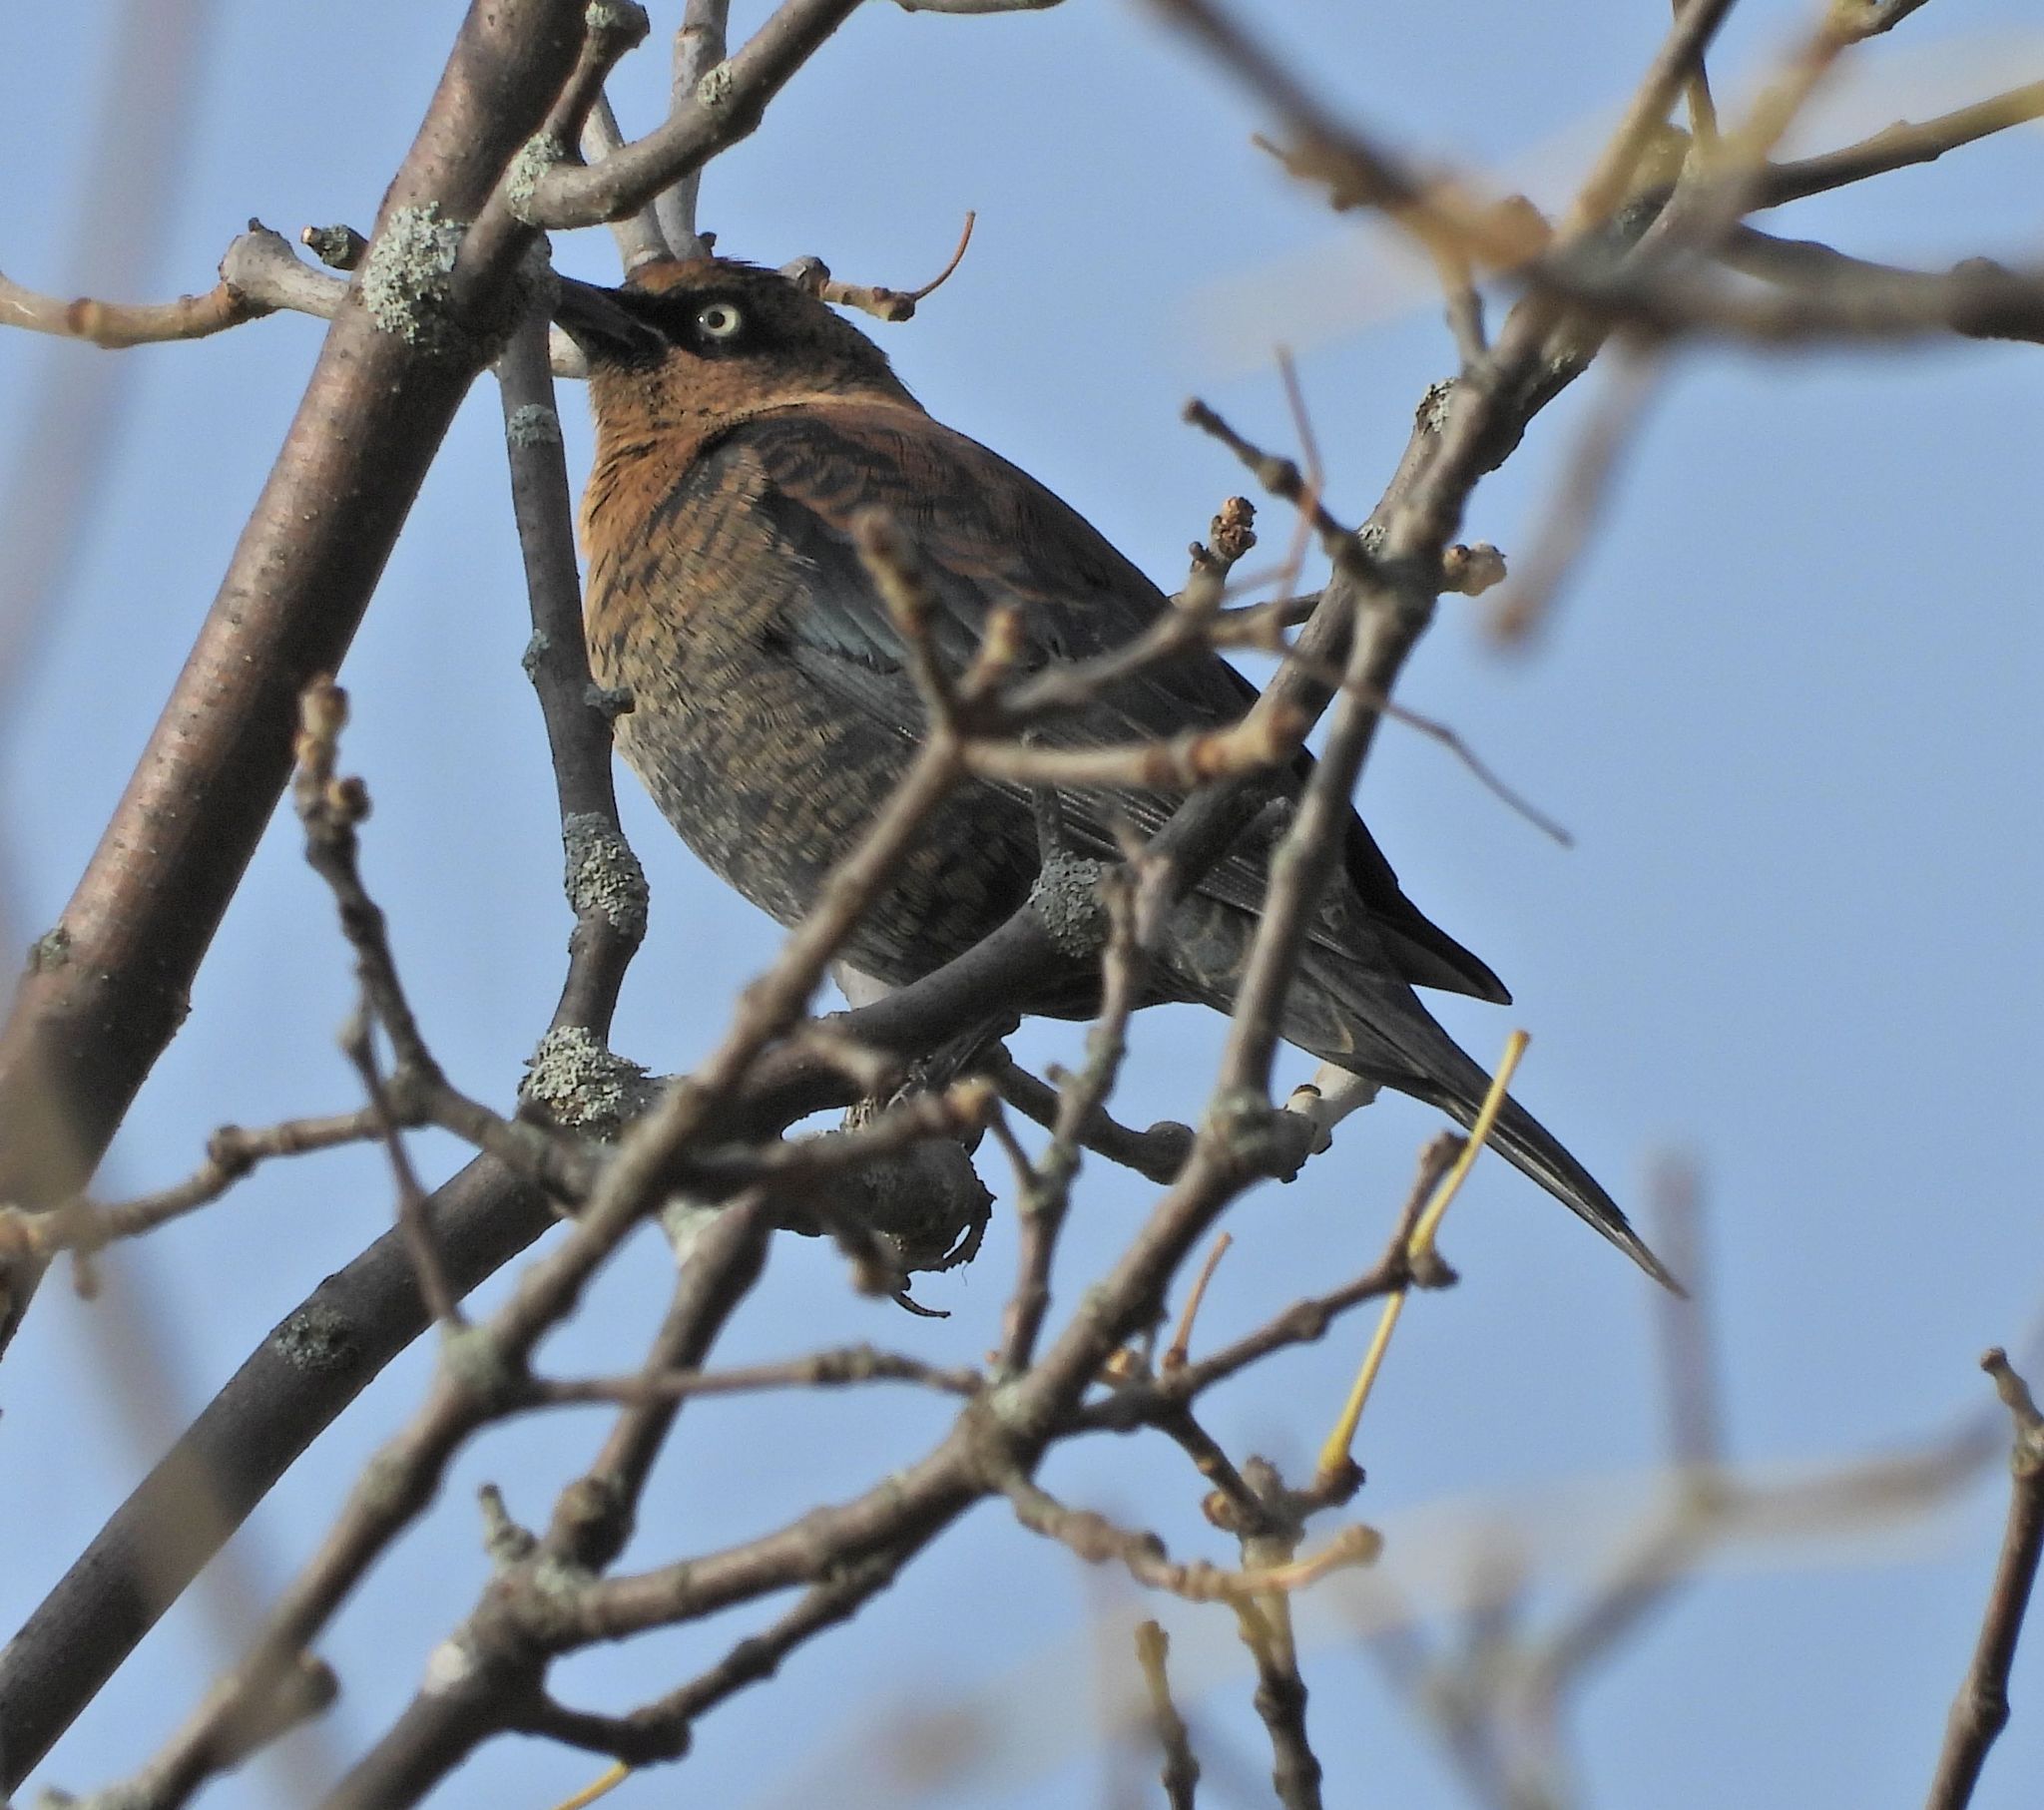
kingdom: Animalia
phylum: Chordata
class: Aves
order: Passeriformes
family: Icteridae
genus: Euphagus
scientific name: Euphagus carolinus
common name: Rusty blackbird
